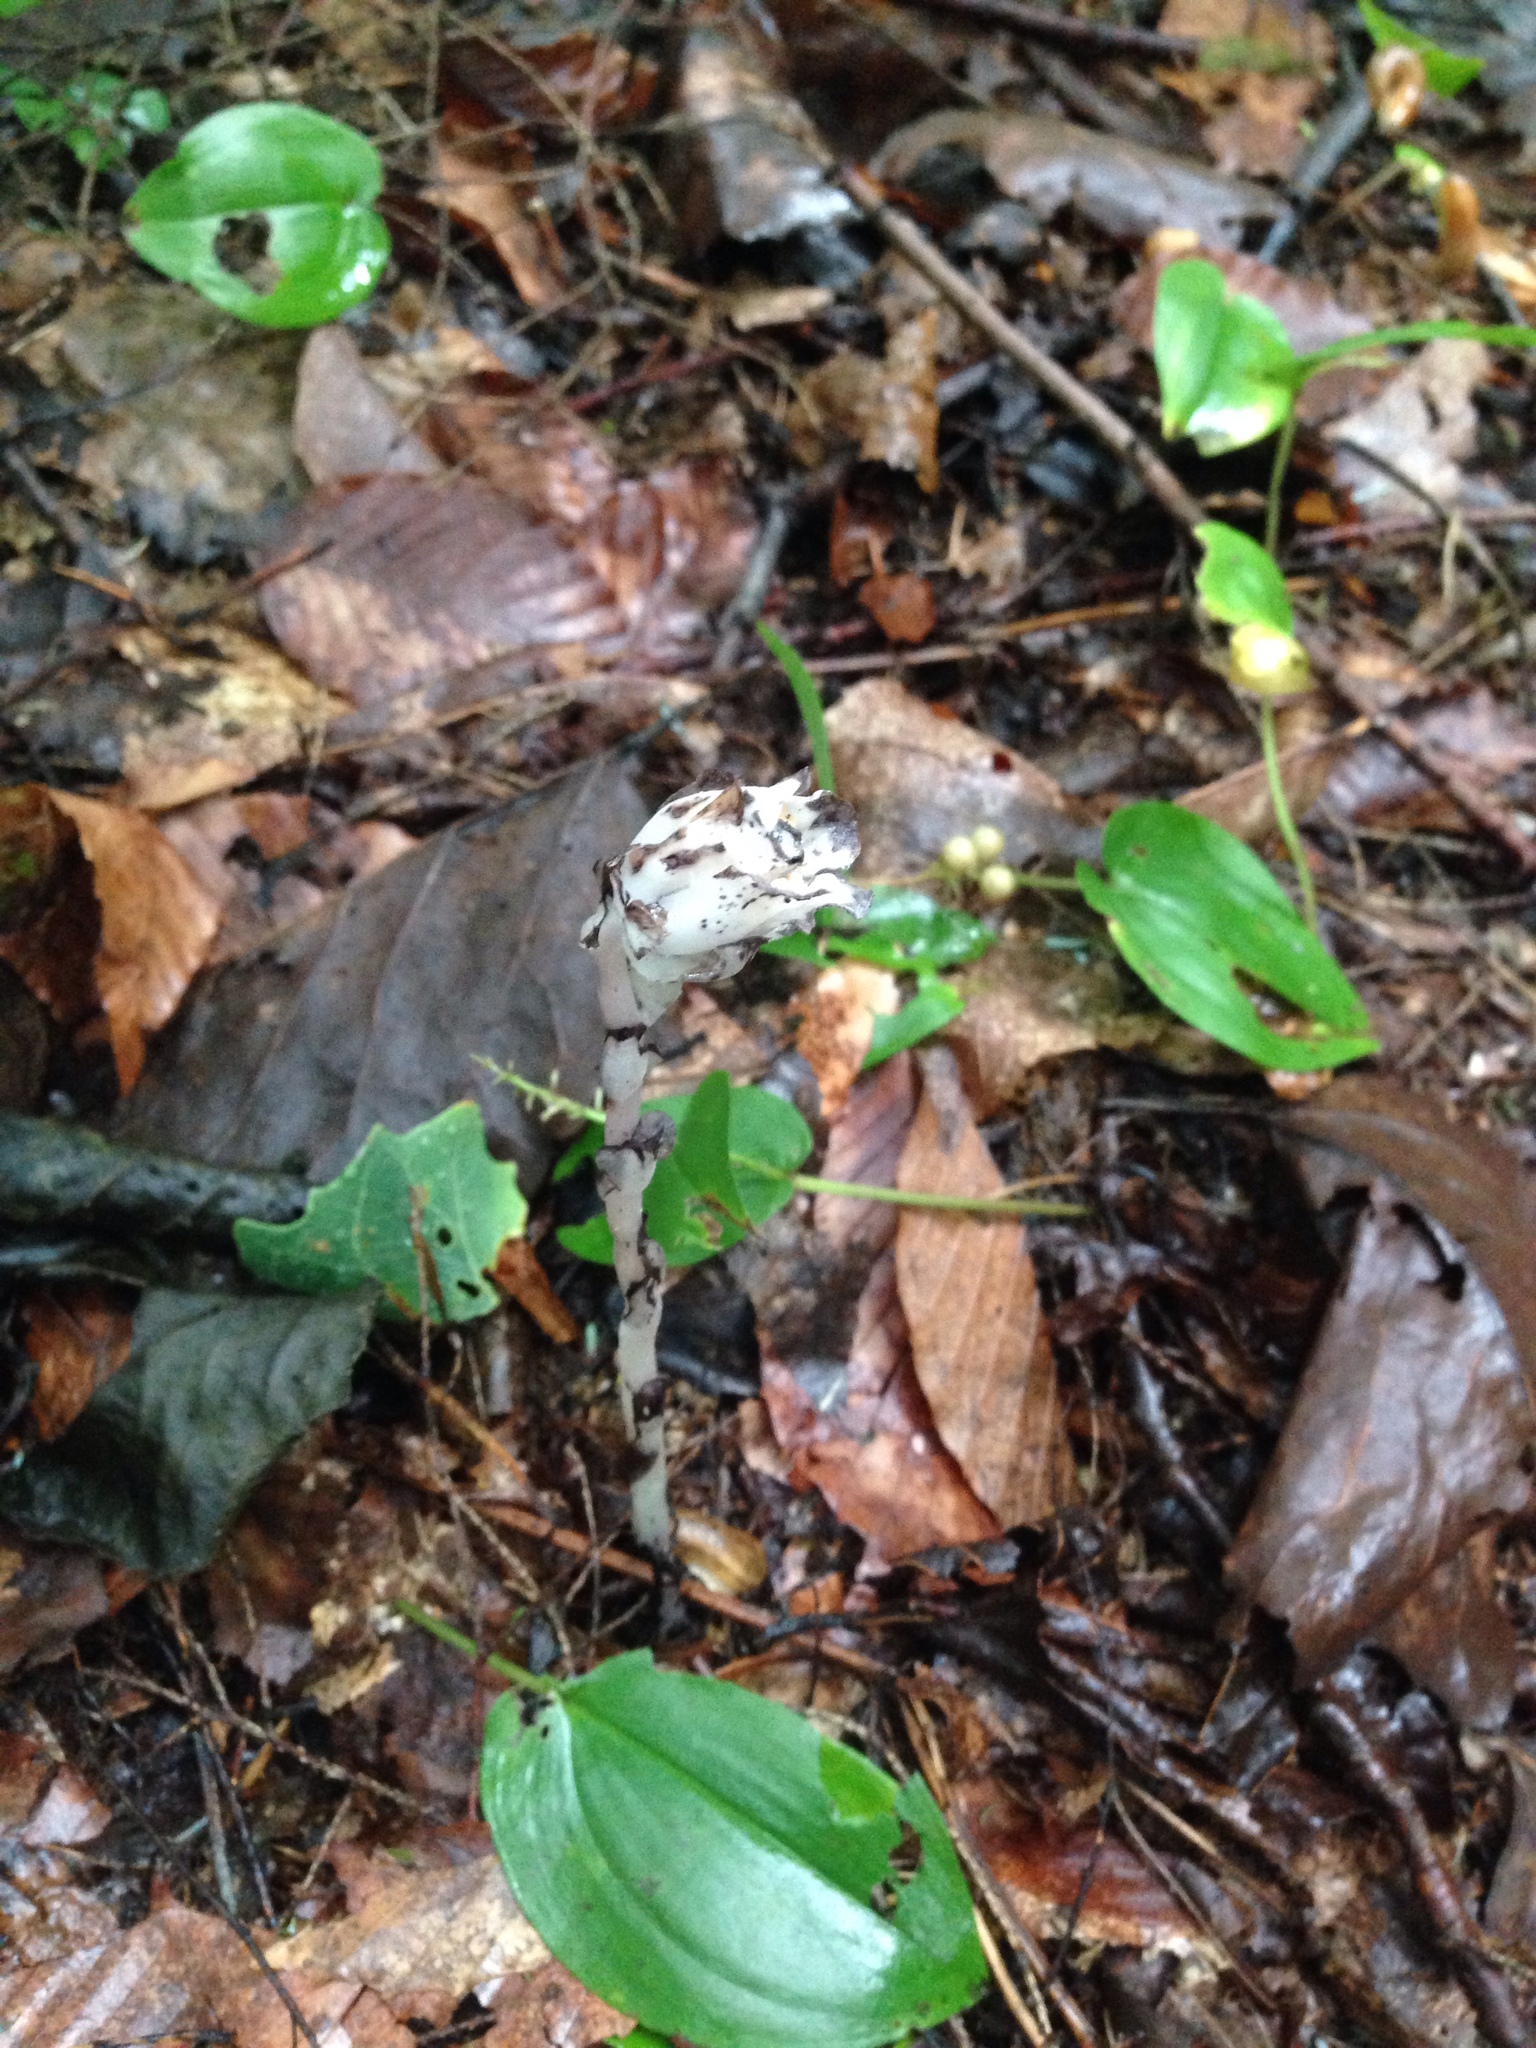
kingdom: Plantae
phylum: Tracheophyta
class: Magnoliopsida
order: Ericales
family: Ericaceae
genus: Monotropa
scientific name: Monotropa uniflora
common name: Convulsion root
